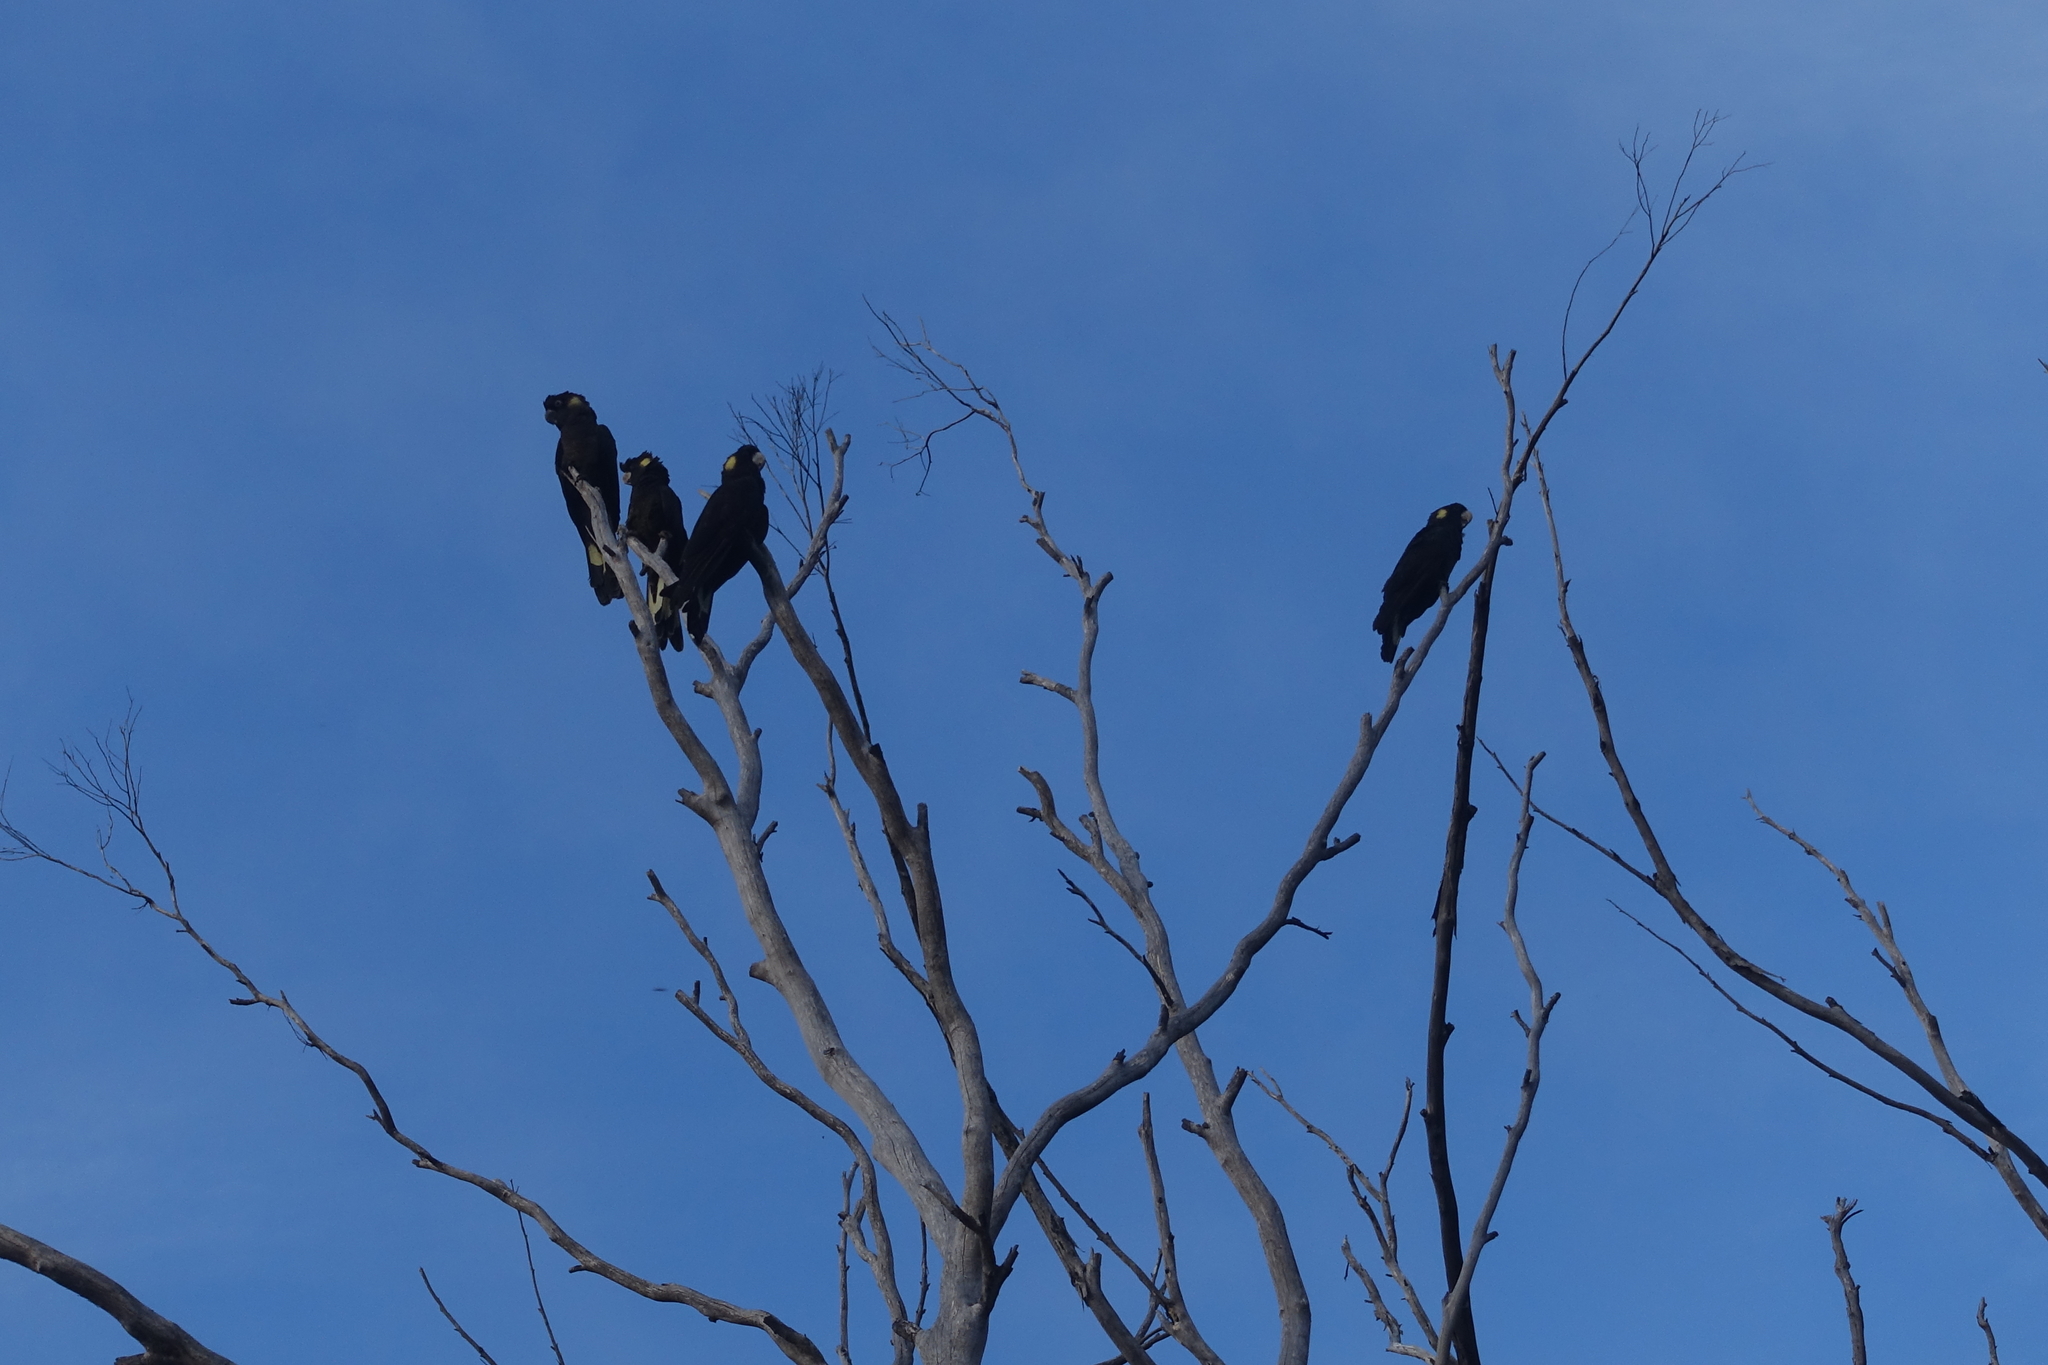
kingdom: Animalia
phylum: Chordata
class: Aves
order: Psittaciformes
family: Cacatuidae
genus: Zanda
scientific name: Zanda funerea
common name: Yellow-tailed black-cockatoo
